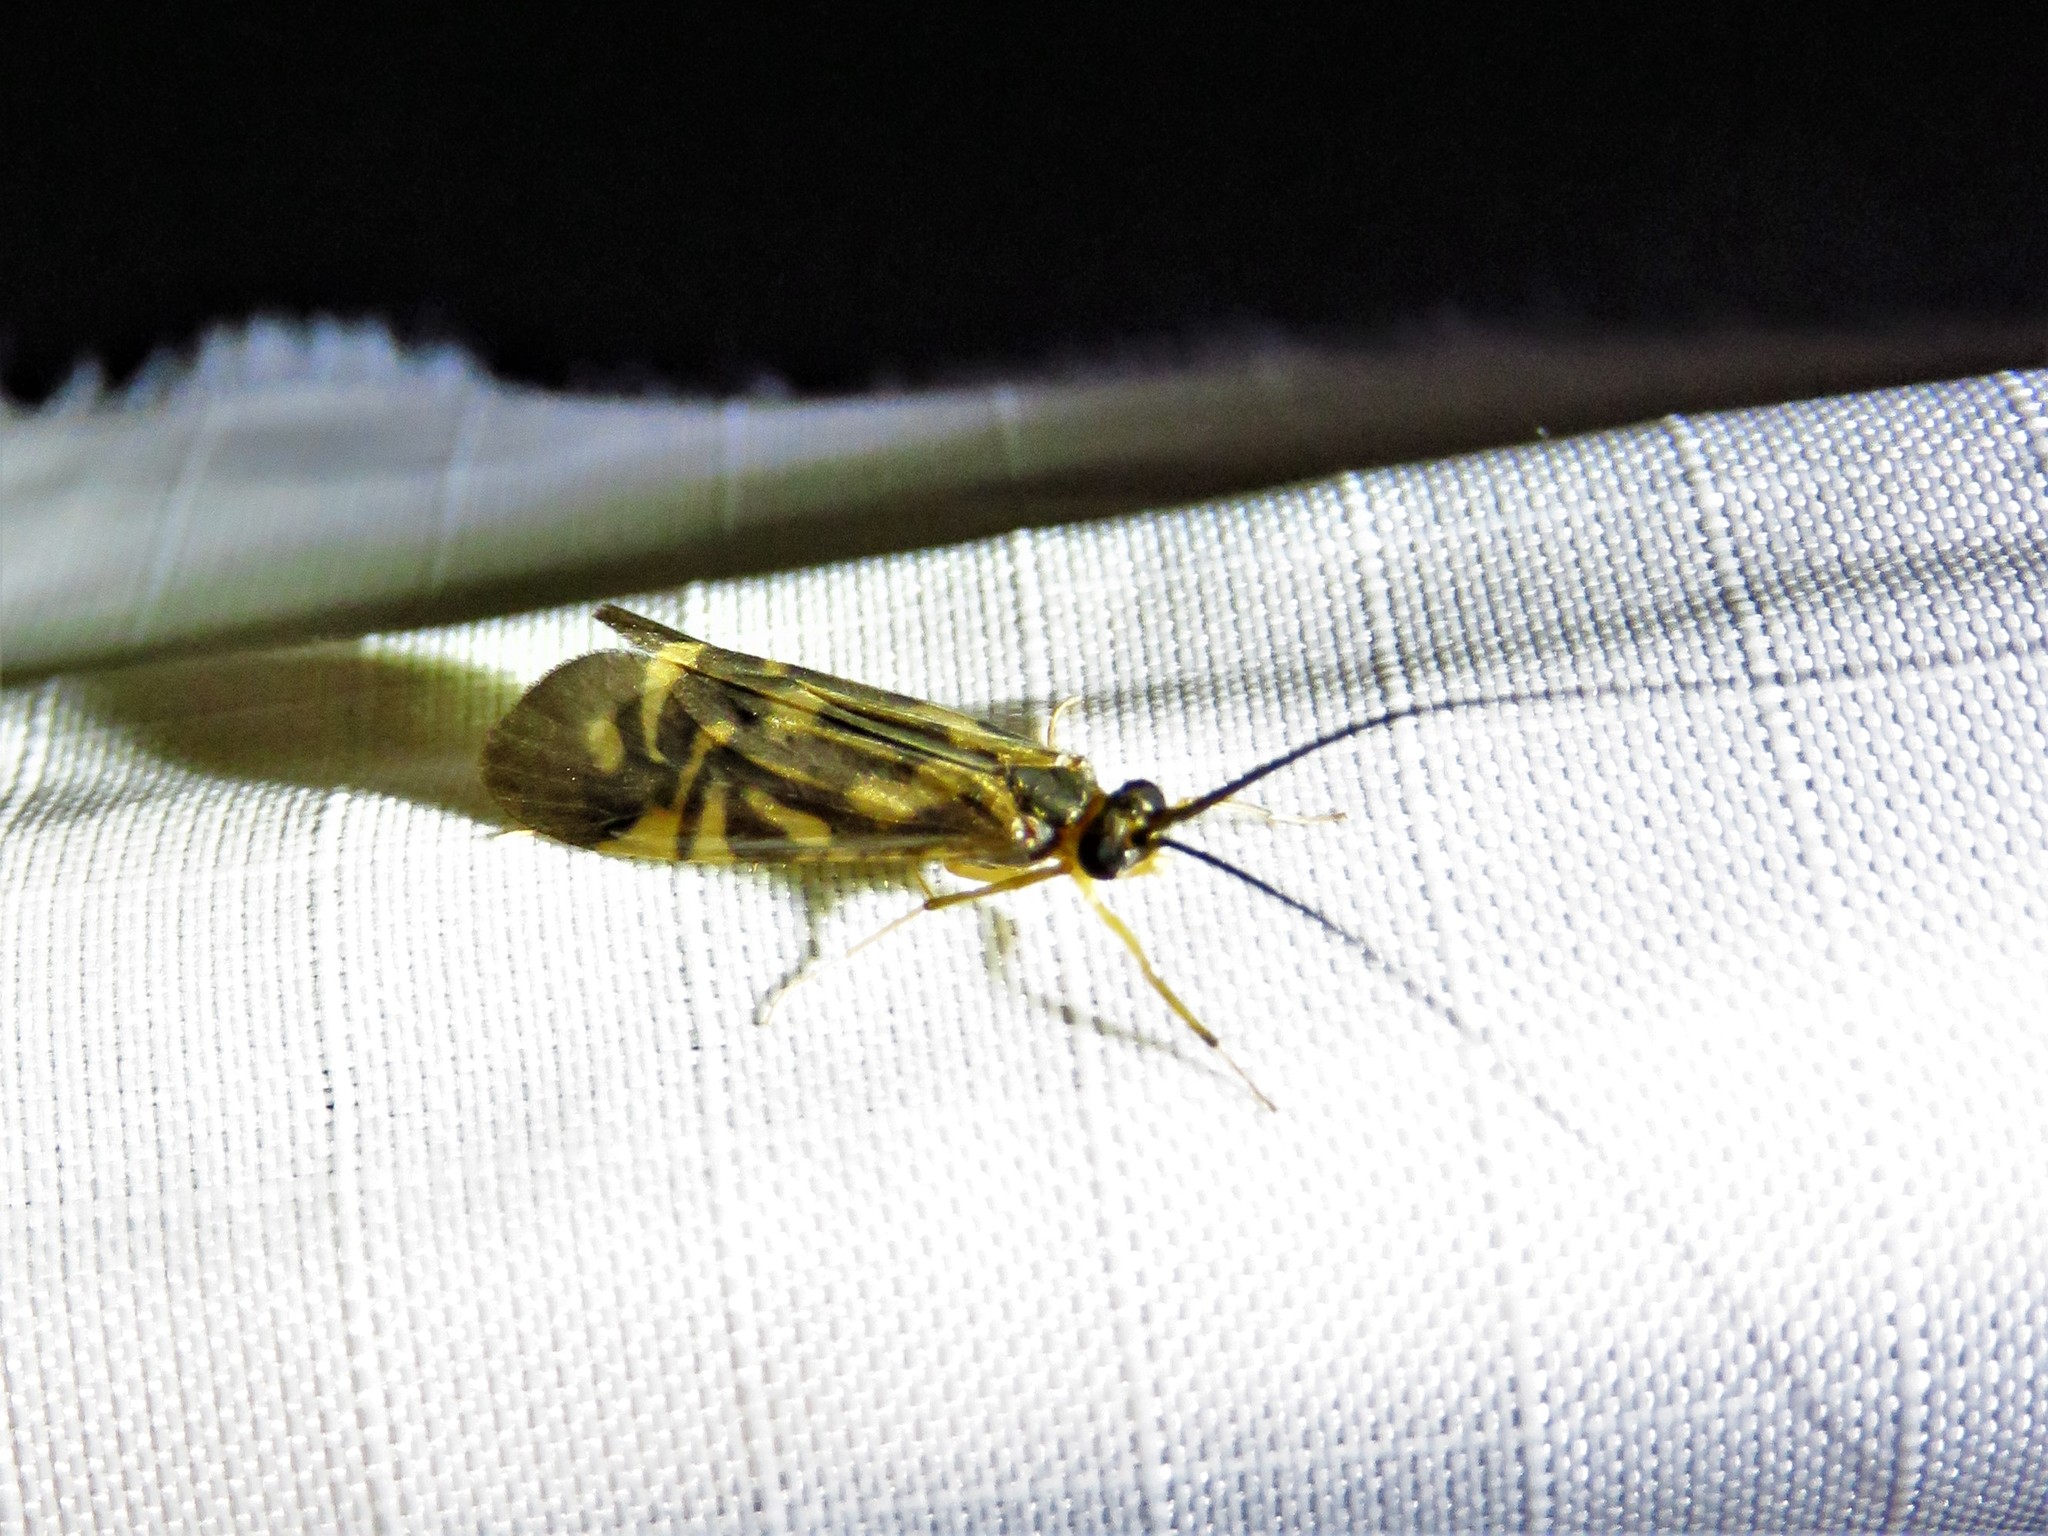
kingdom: Animalia
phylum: Arthropoda
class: Insecta
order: Trichoptera
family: Hydropsychidae
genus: Macrostemum
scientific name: Macrostemum carolina
